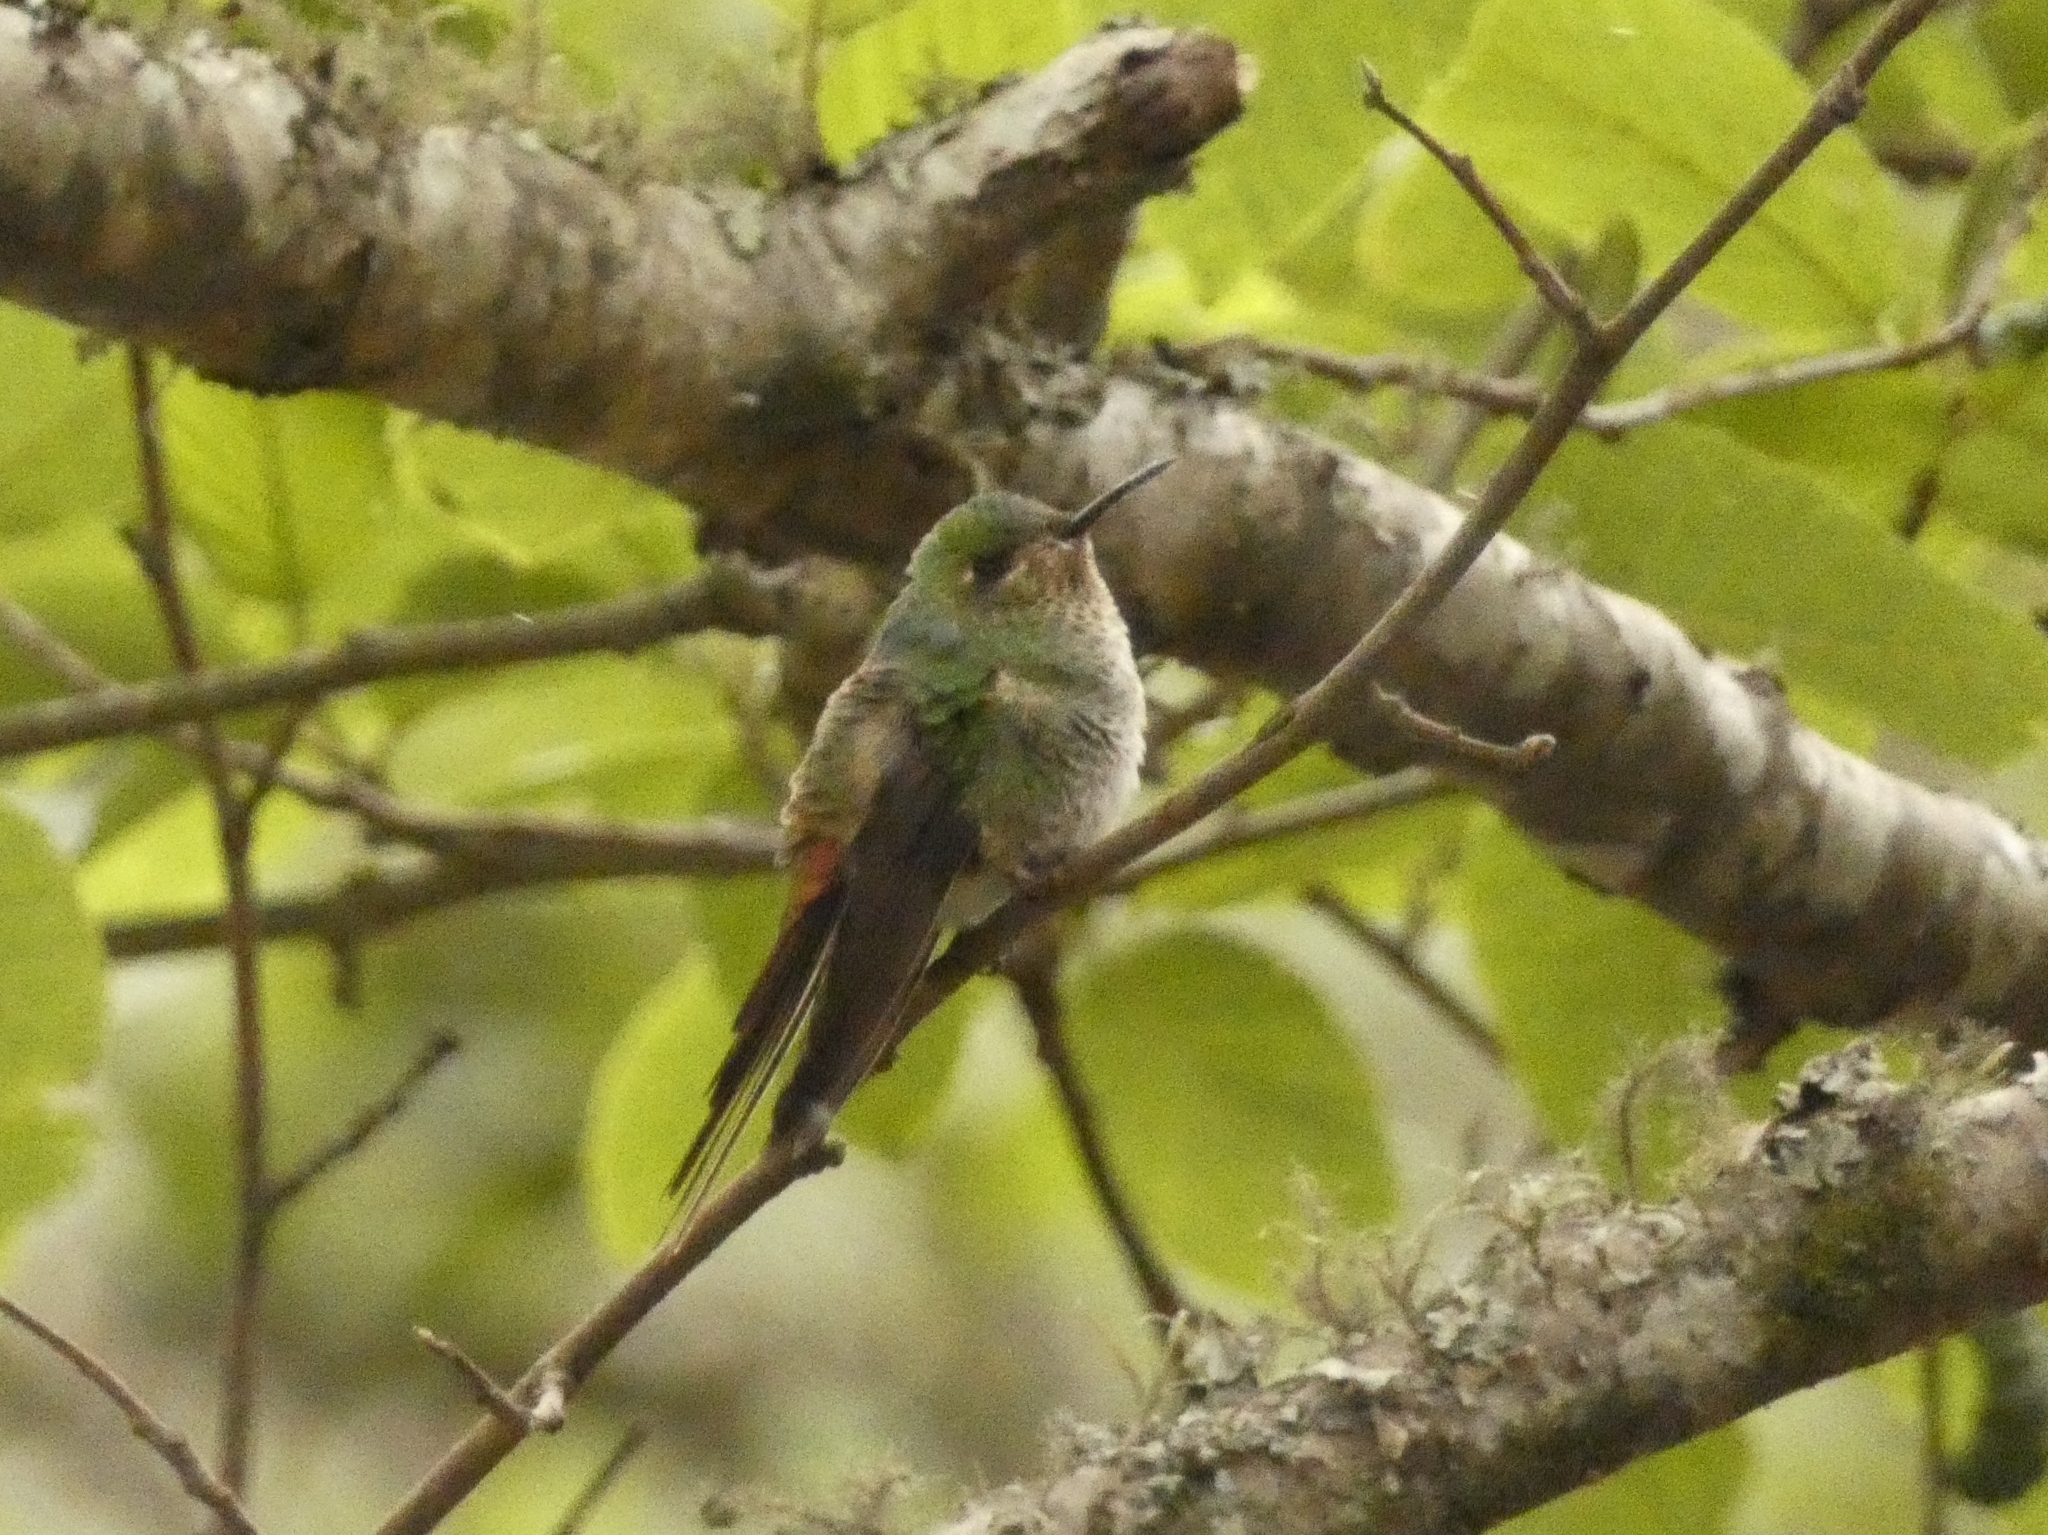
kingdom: Animalia
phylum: Chordata
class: Aves
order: Apodiformes
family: Trochilidae
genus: Sappho
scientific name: Sappho sparganurus
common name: Red-tailed comet
